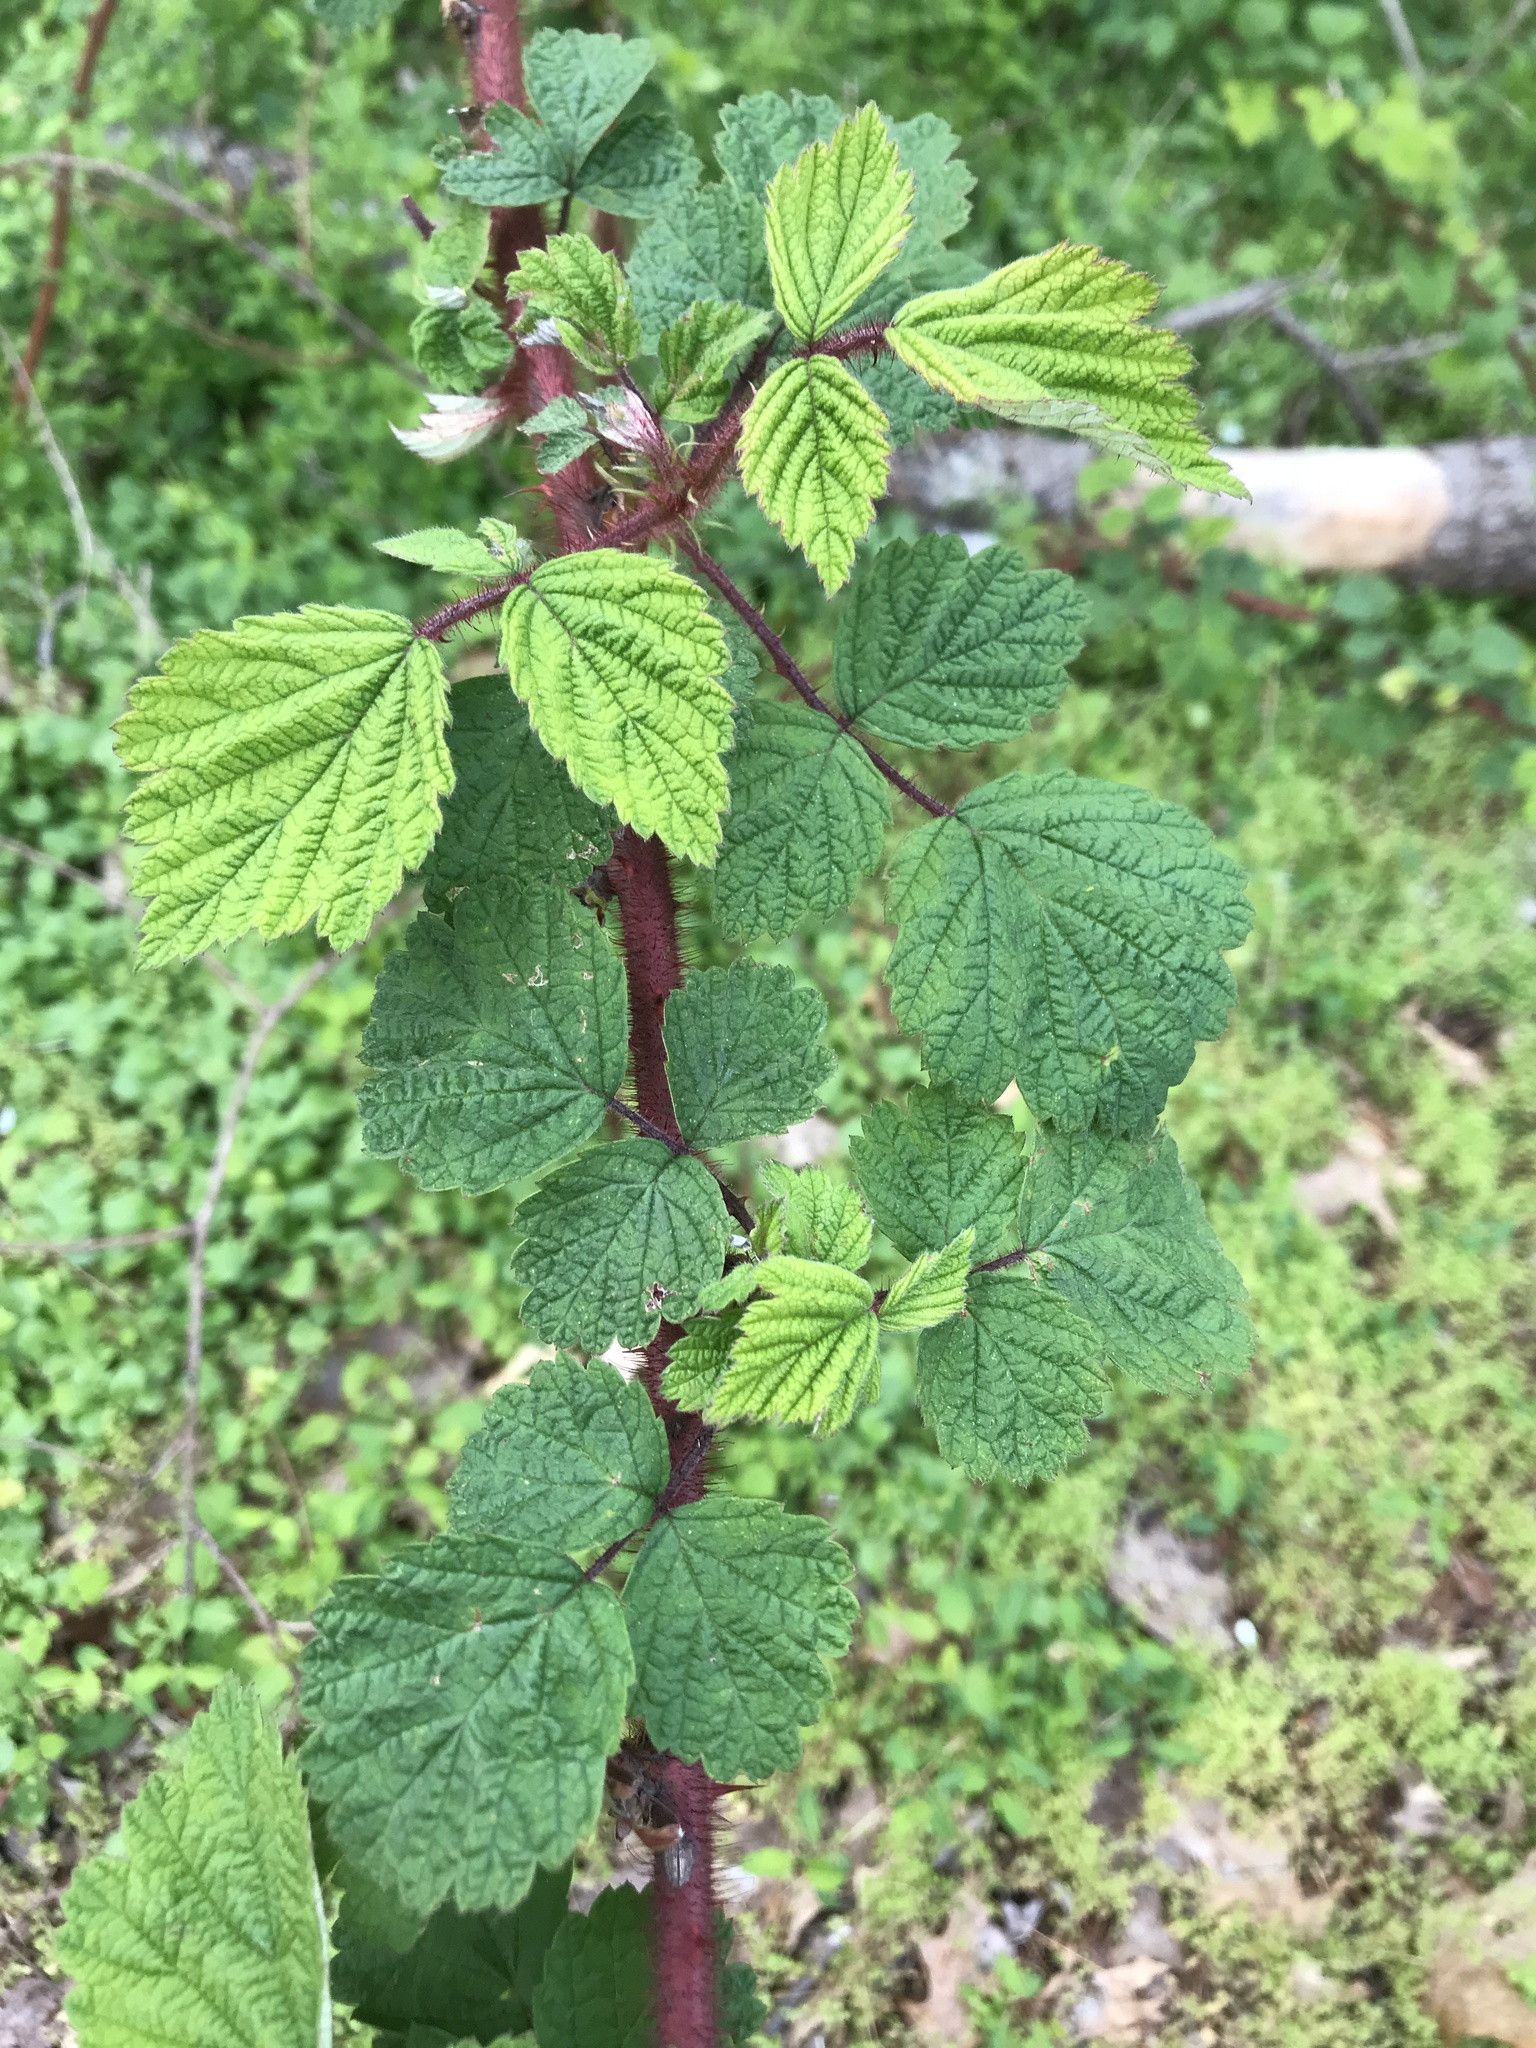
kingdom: Plantae
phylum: Tracheophyta
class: Magnoliopsida
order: Rosales
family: Rosaceae
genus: Rubus
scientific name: Rubus phoenicolasius
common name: Japanese wineberry
